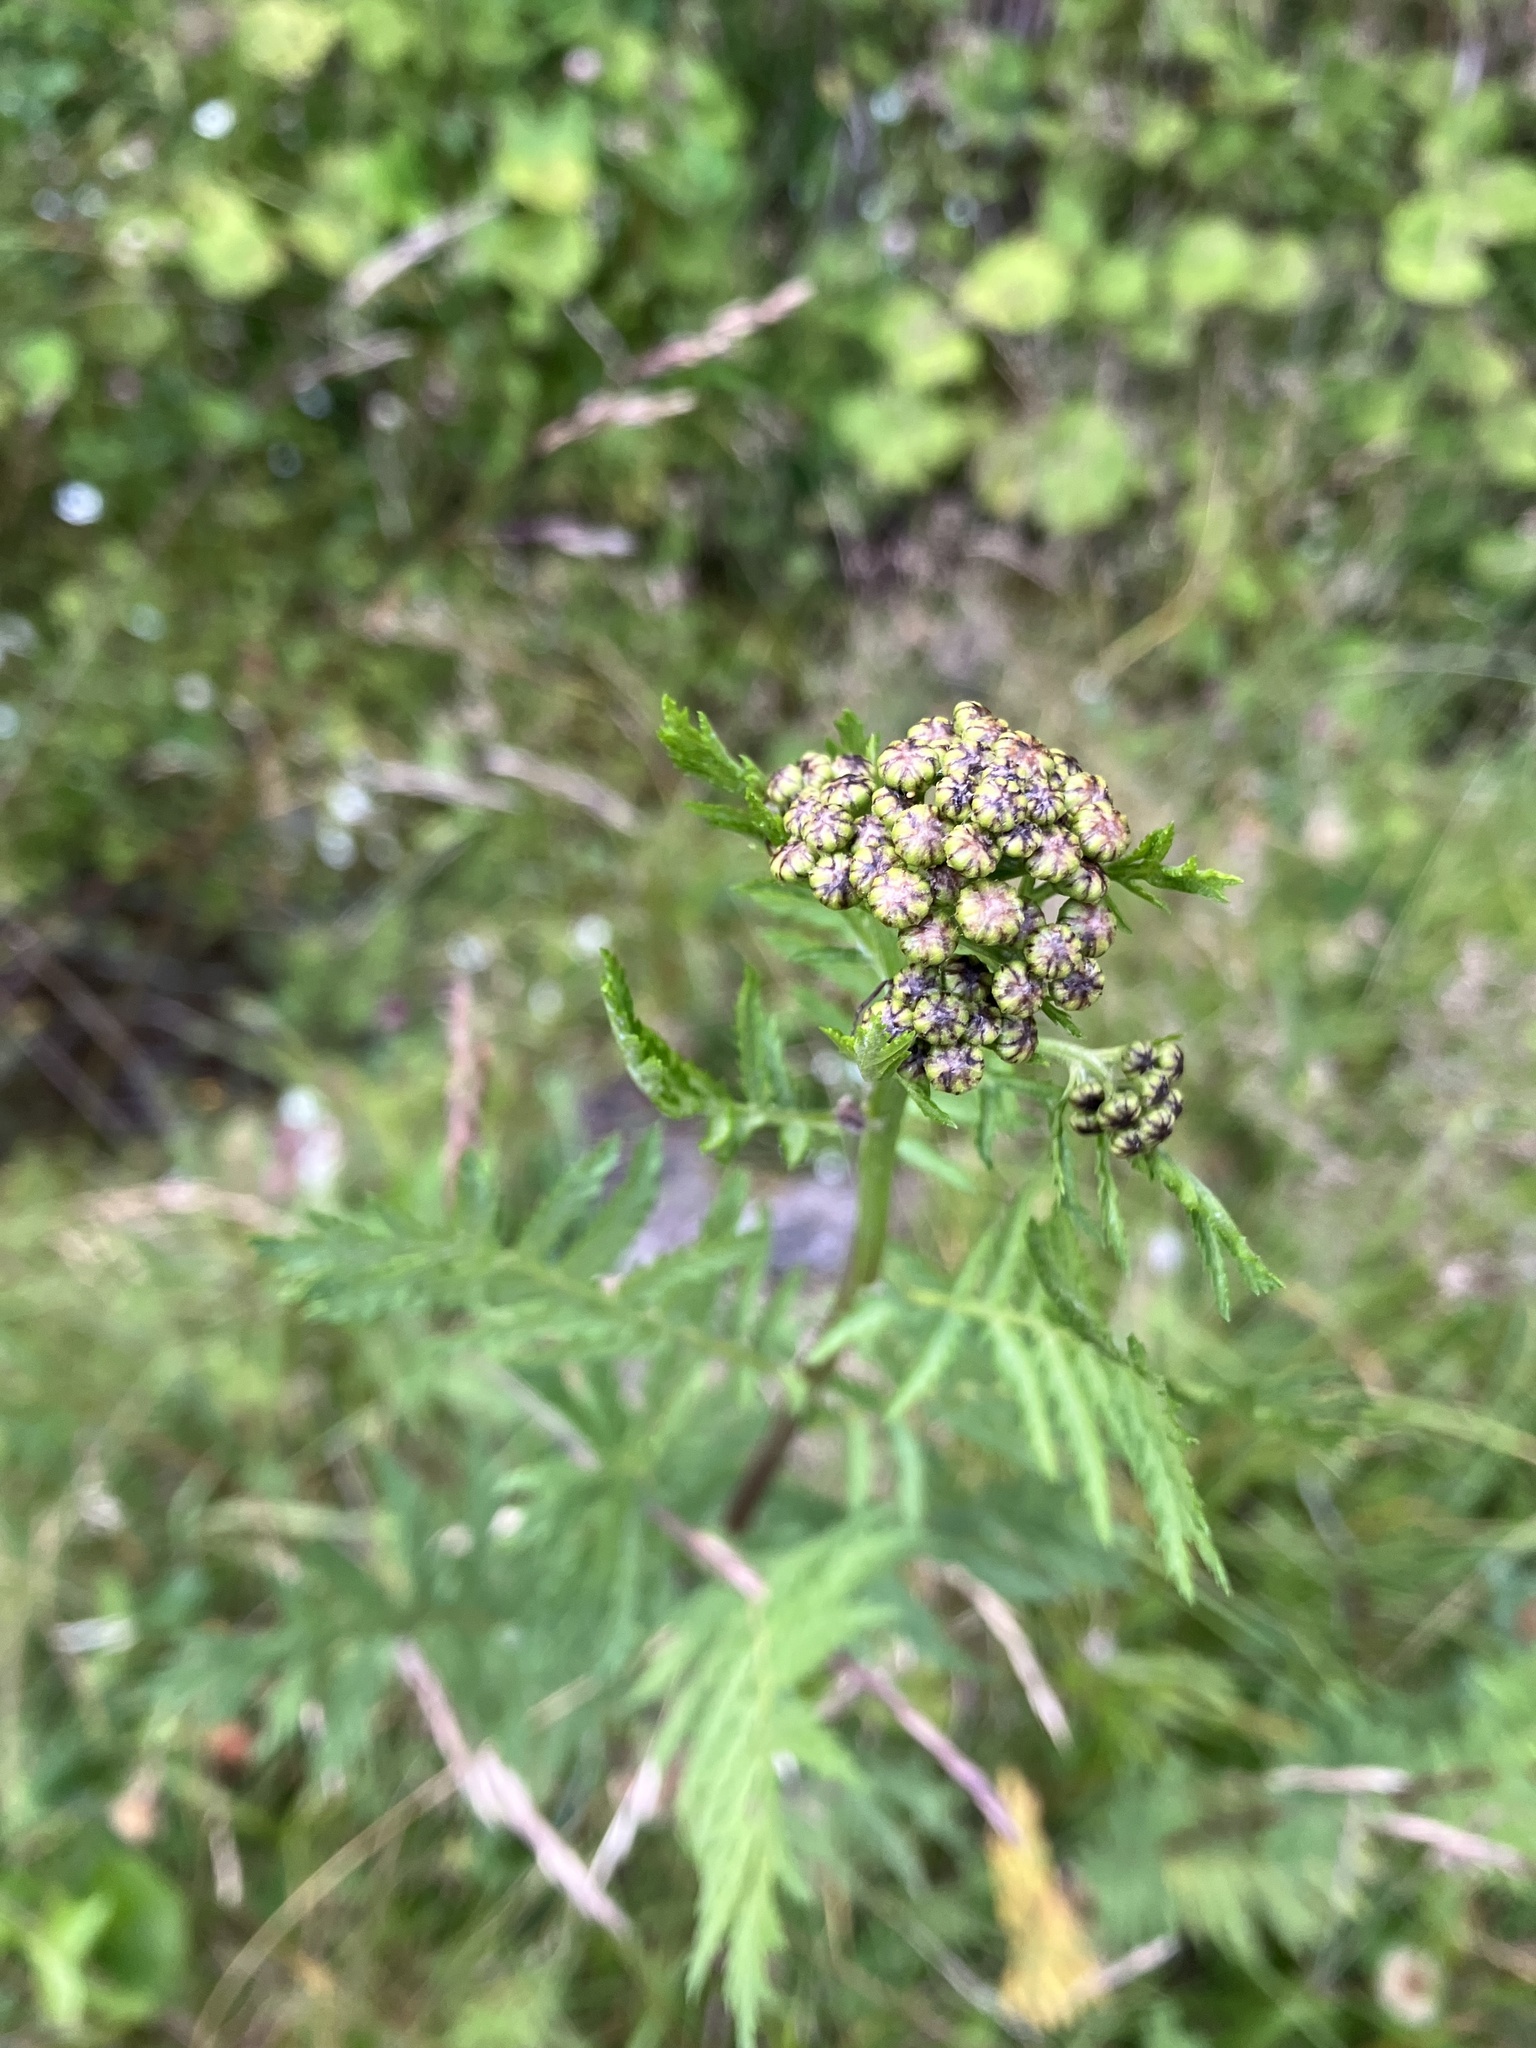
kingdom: Plantae
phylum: Tracheophyta
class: Magnoliopsida
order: Asterales
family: Asteraceae
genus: Tanacetum
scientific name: Tanacetum vulgare
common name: Common tansy
